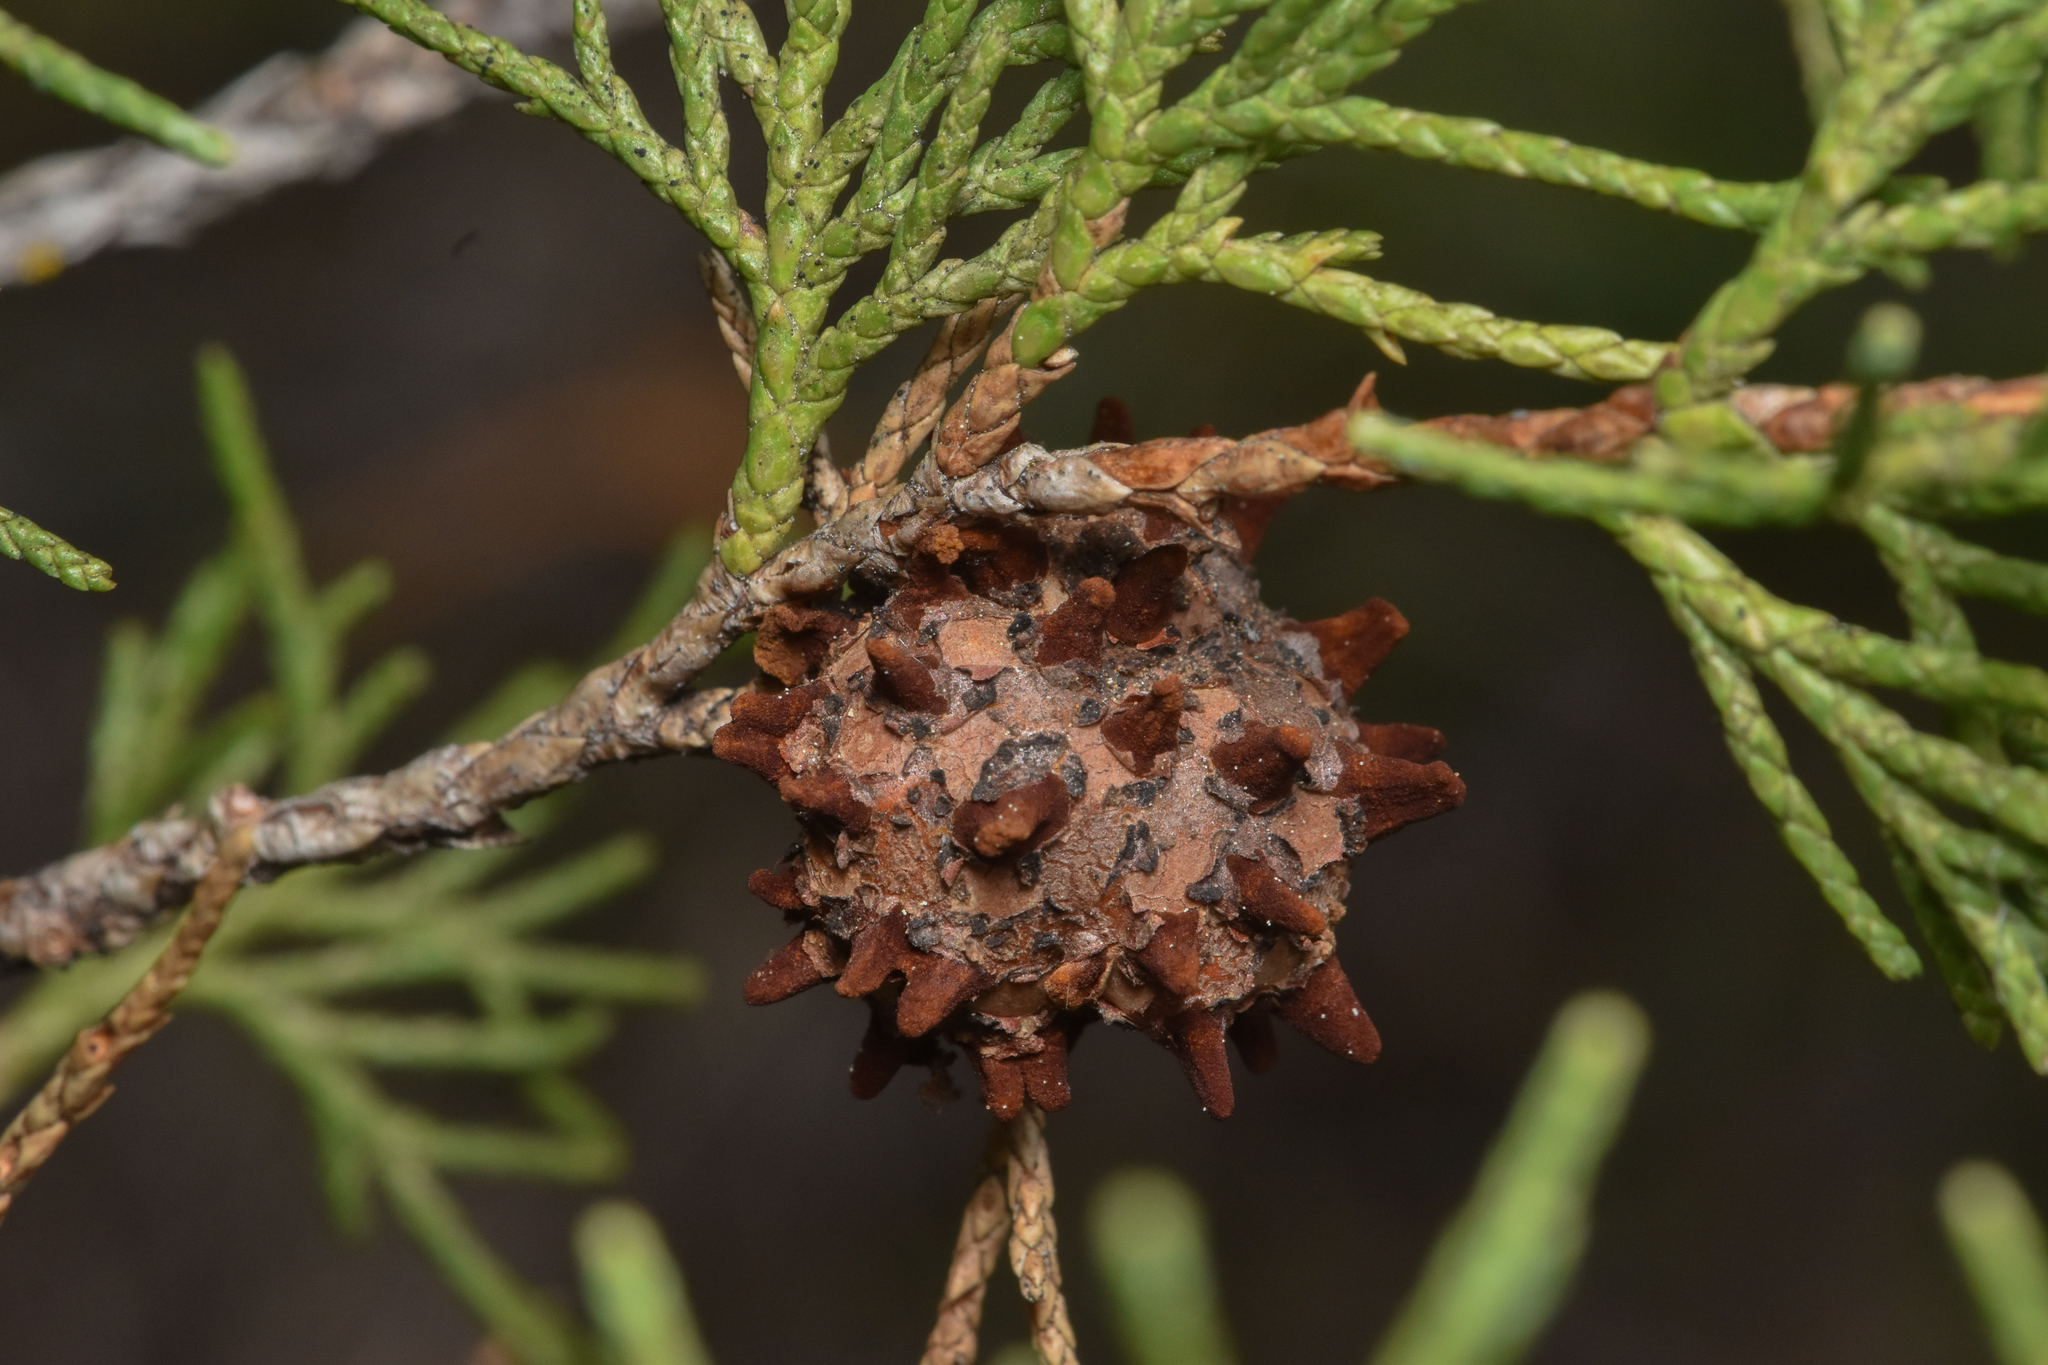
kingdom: Fungi
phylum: Basidiomycota
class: Pucciniomycetes
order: Pucciniales
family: Gymnosporangiaceae
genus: Gymnosporangium
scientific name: Gymnosporangium juniperi-virginianae
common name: Juniper-apple rust
